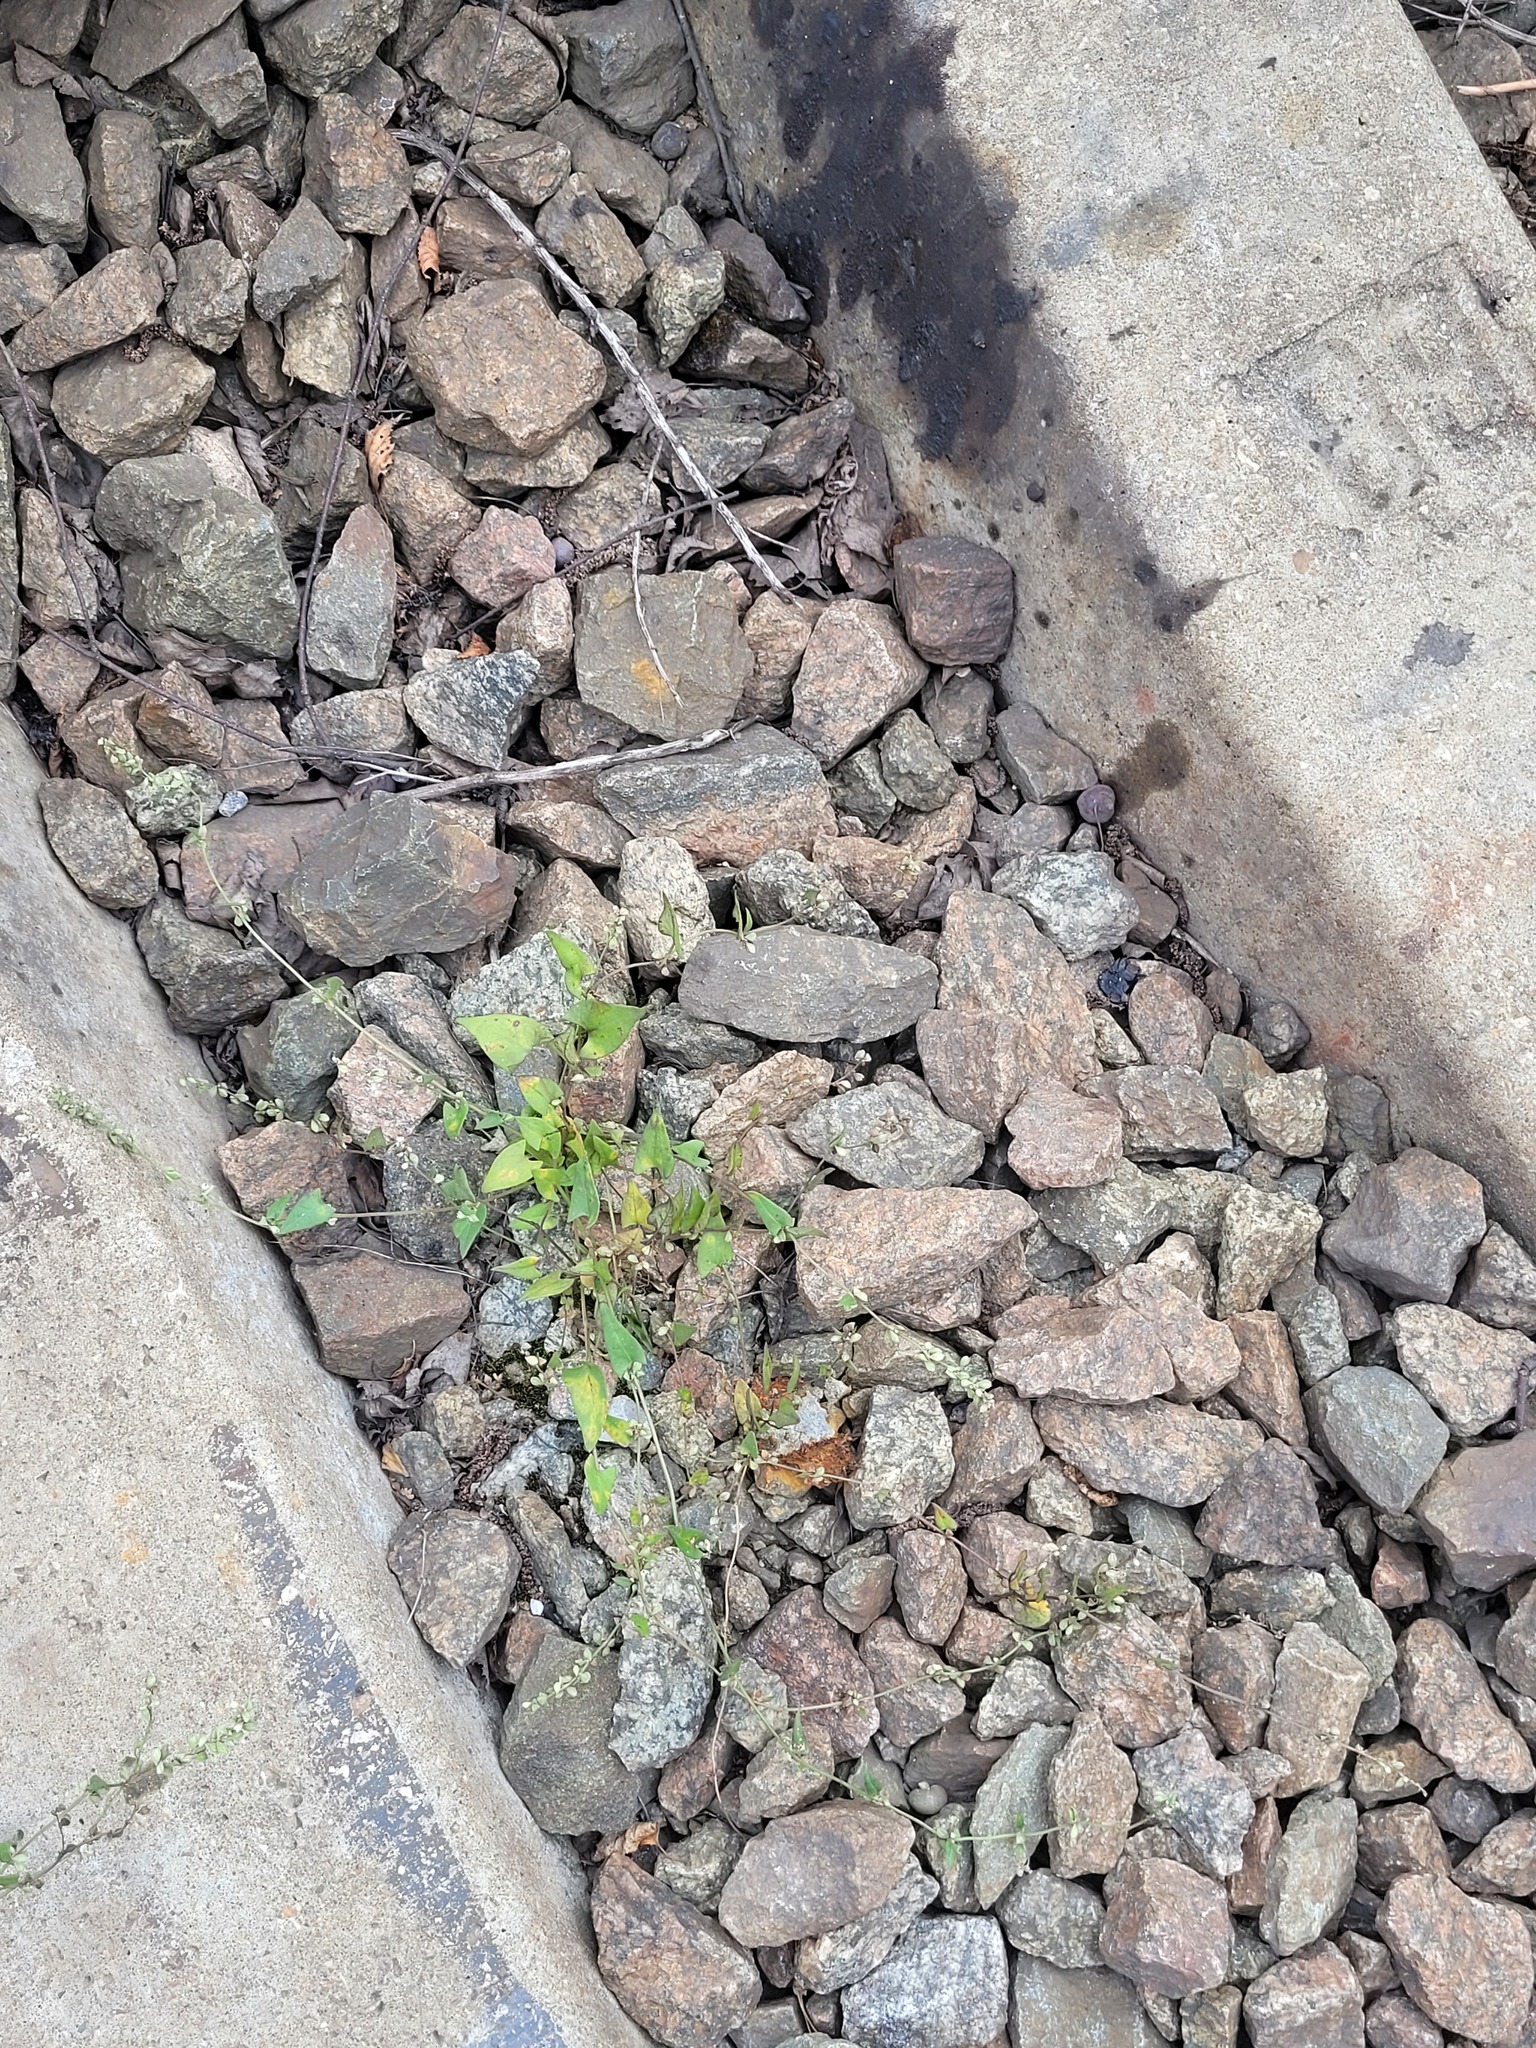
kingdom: Plantae
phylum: Tracheophyta
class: Magnoliopsida
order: Caryophyllales
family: Polygonaceae
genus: Fallopia
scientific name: Fallopia convolvulus
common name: Black bindweed
